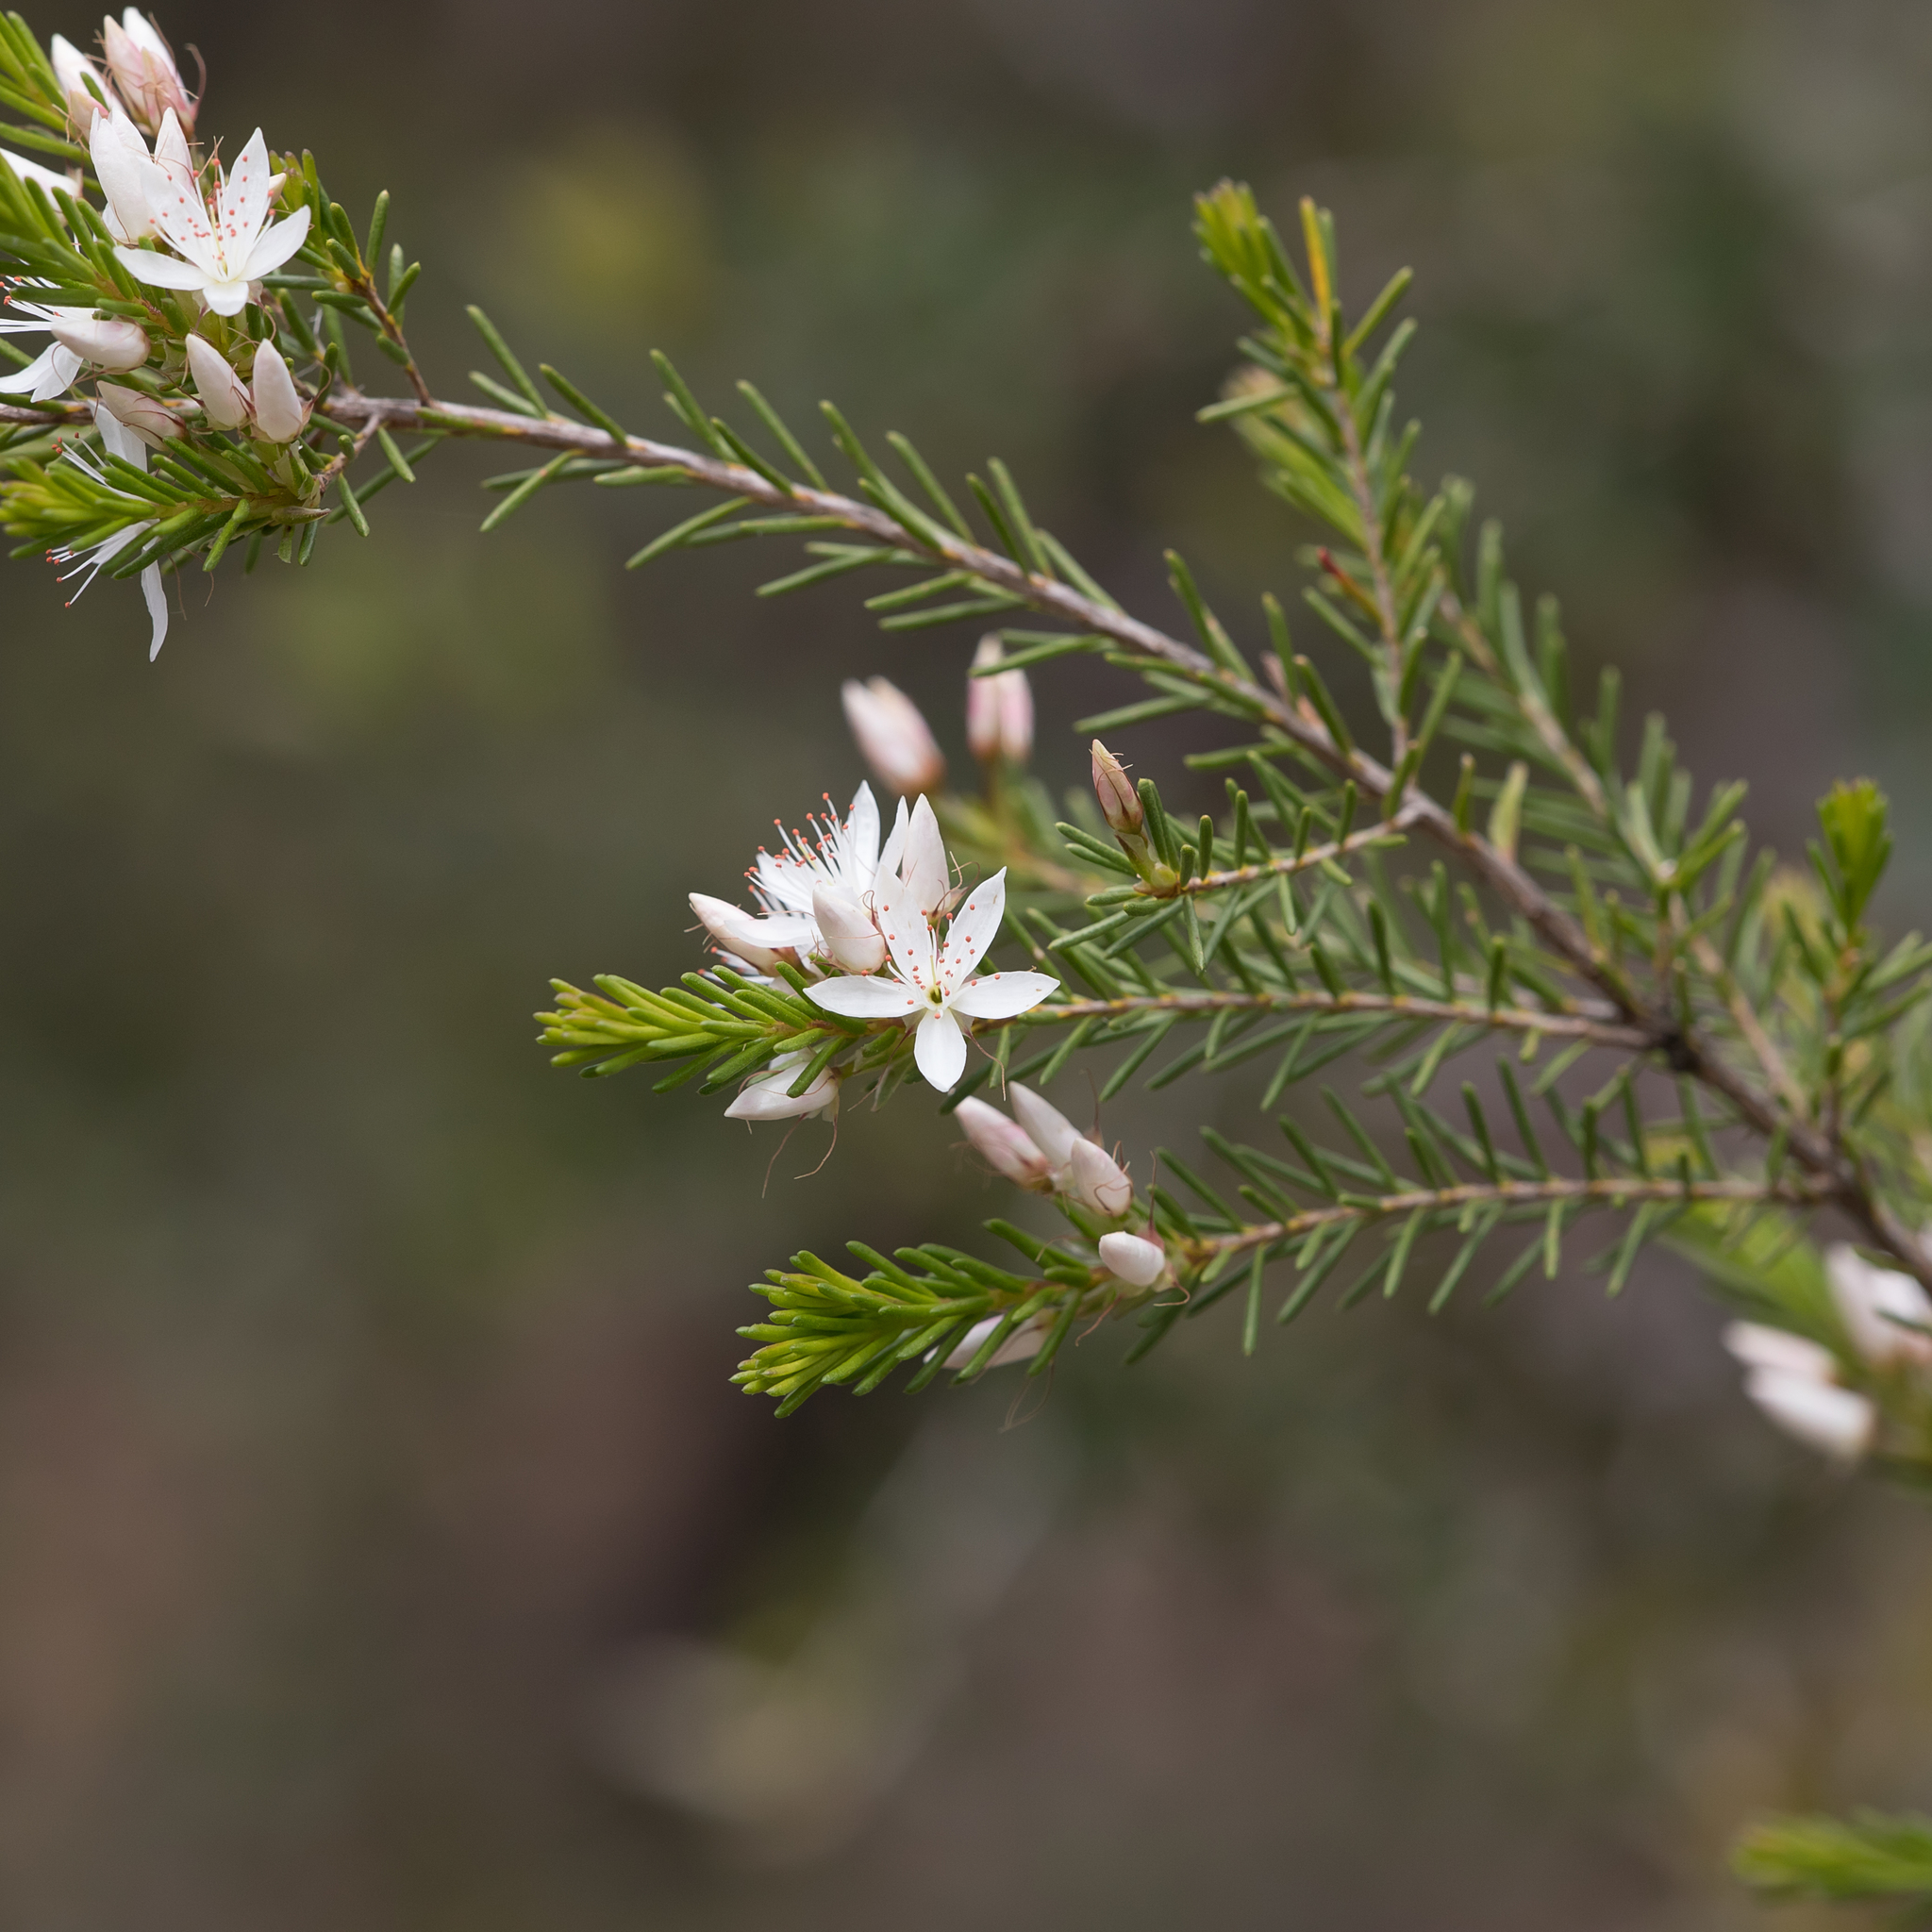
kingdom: Plantae
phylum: Tracheophyta
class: Magnoliopsida
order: Myrtales
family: Myrtaceae
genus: Calytrix
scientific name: Calytrix tetragona
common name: Common fringe myrtle
